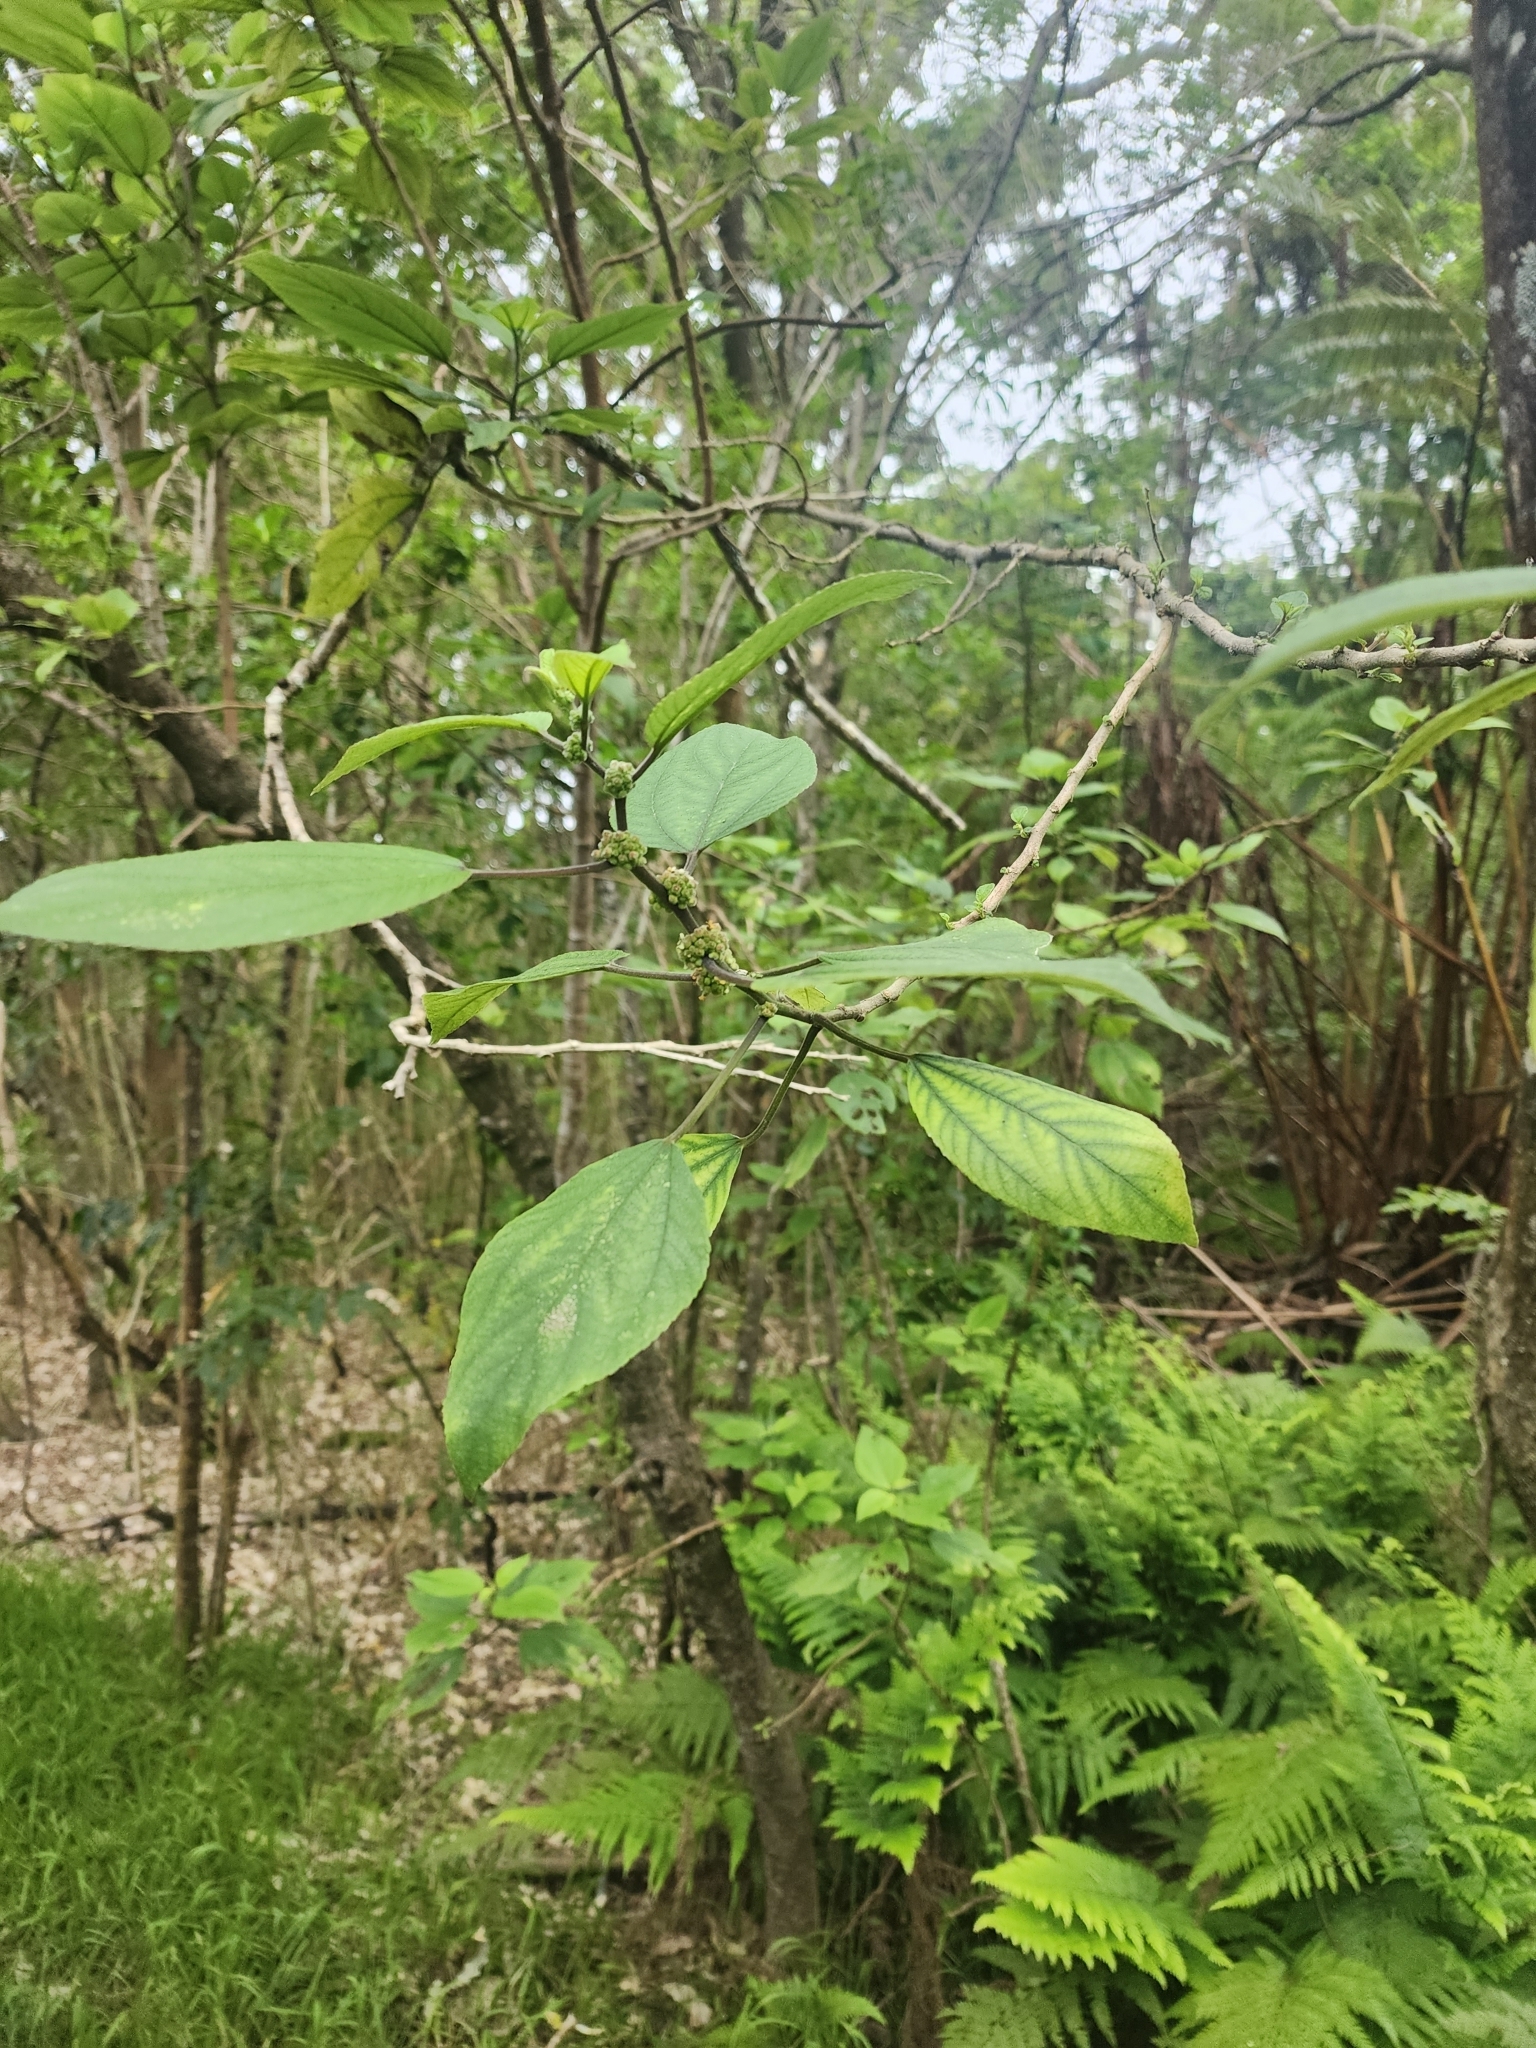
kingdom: Plantae
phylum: Tracheophyta
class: Magnoliopsida
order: Rosales
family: Urticaceae
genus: Pipturus
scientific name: Pipturus albidus
